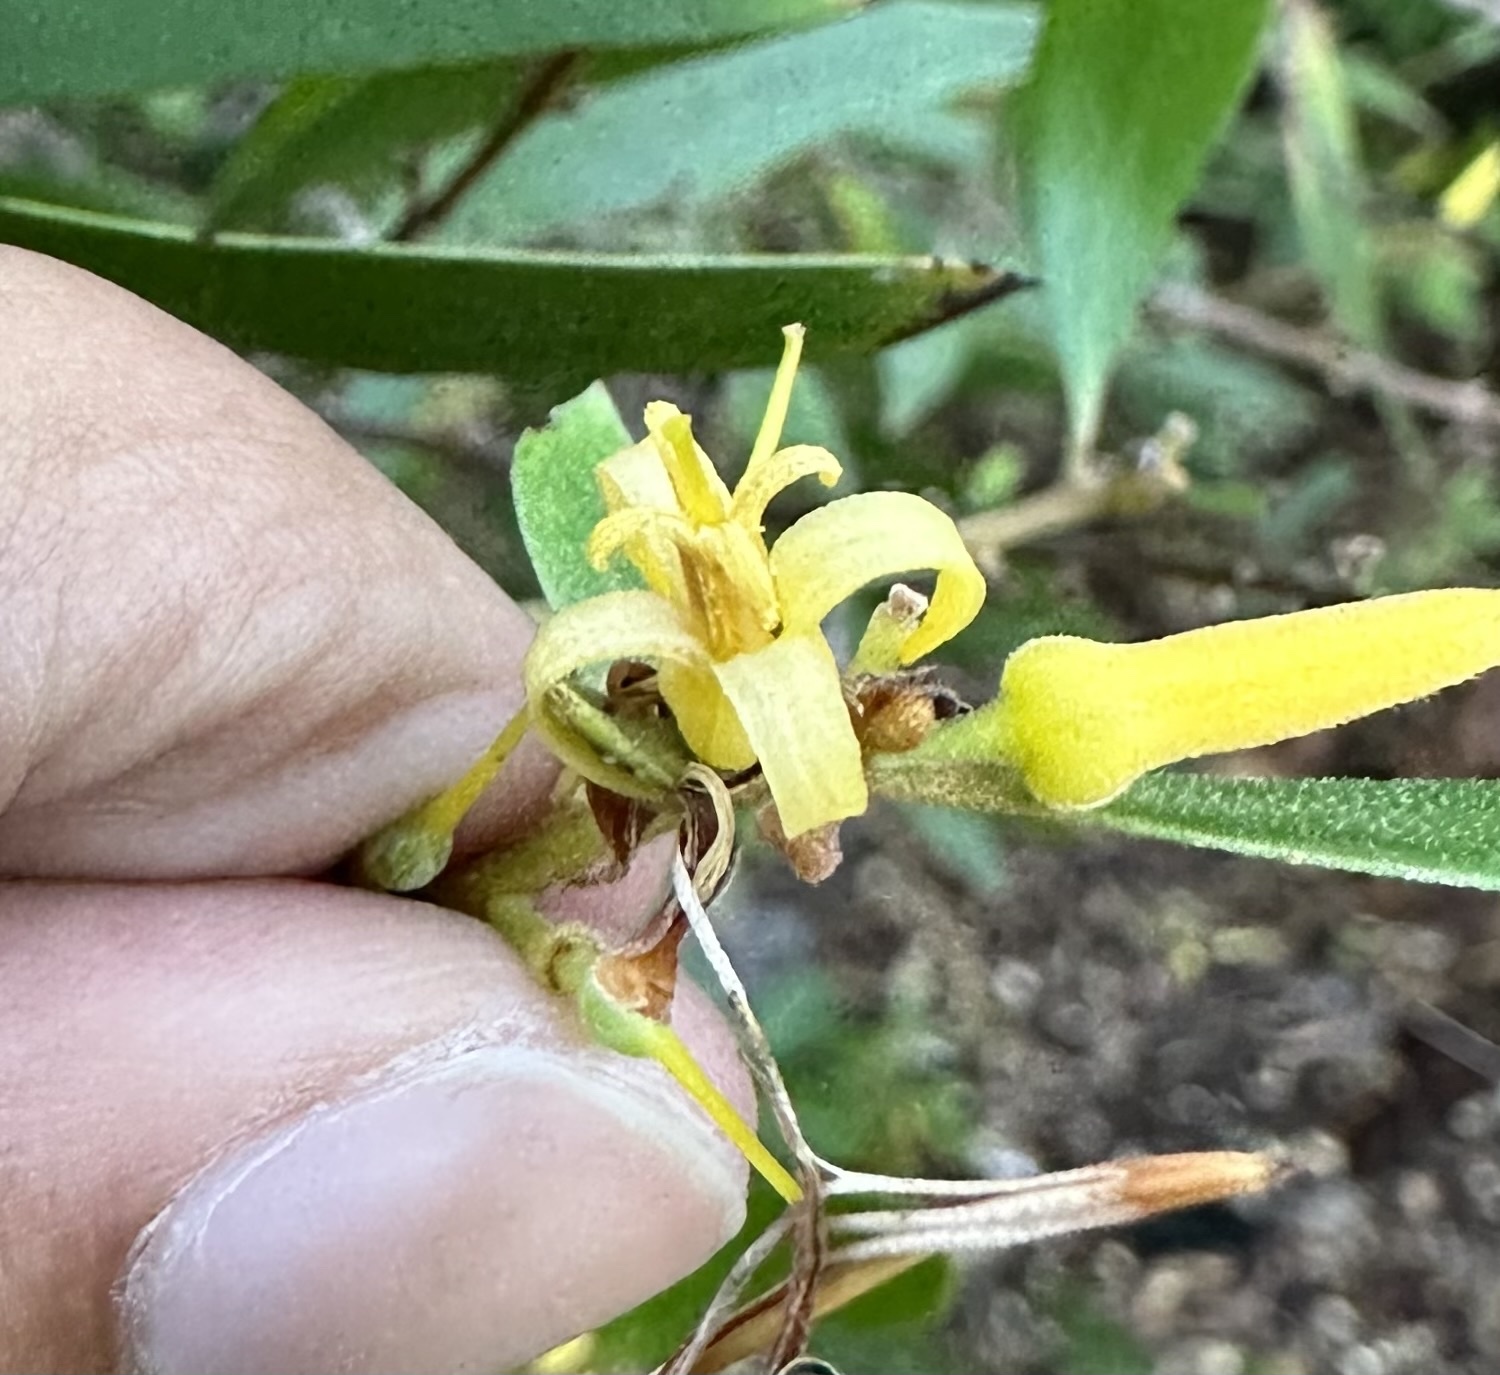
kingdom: Plantae
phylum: Tracheophyta
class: Magnoliopsida
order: Proteales
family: Proteaceae
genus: Persoonia
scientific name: Persoonia stradbrokensis
